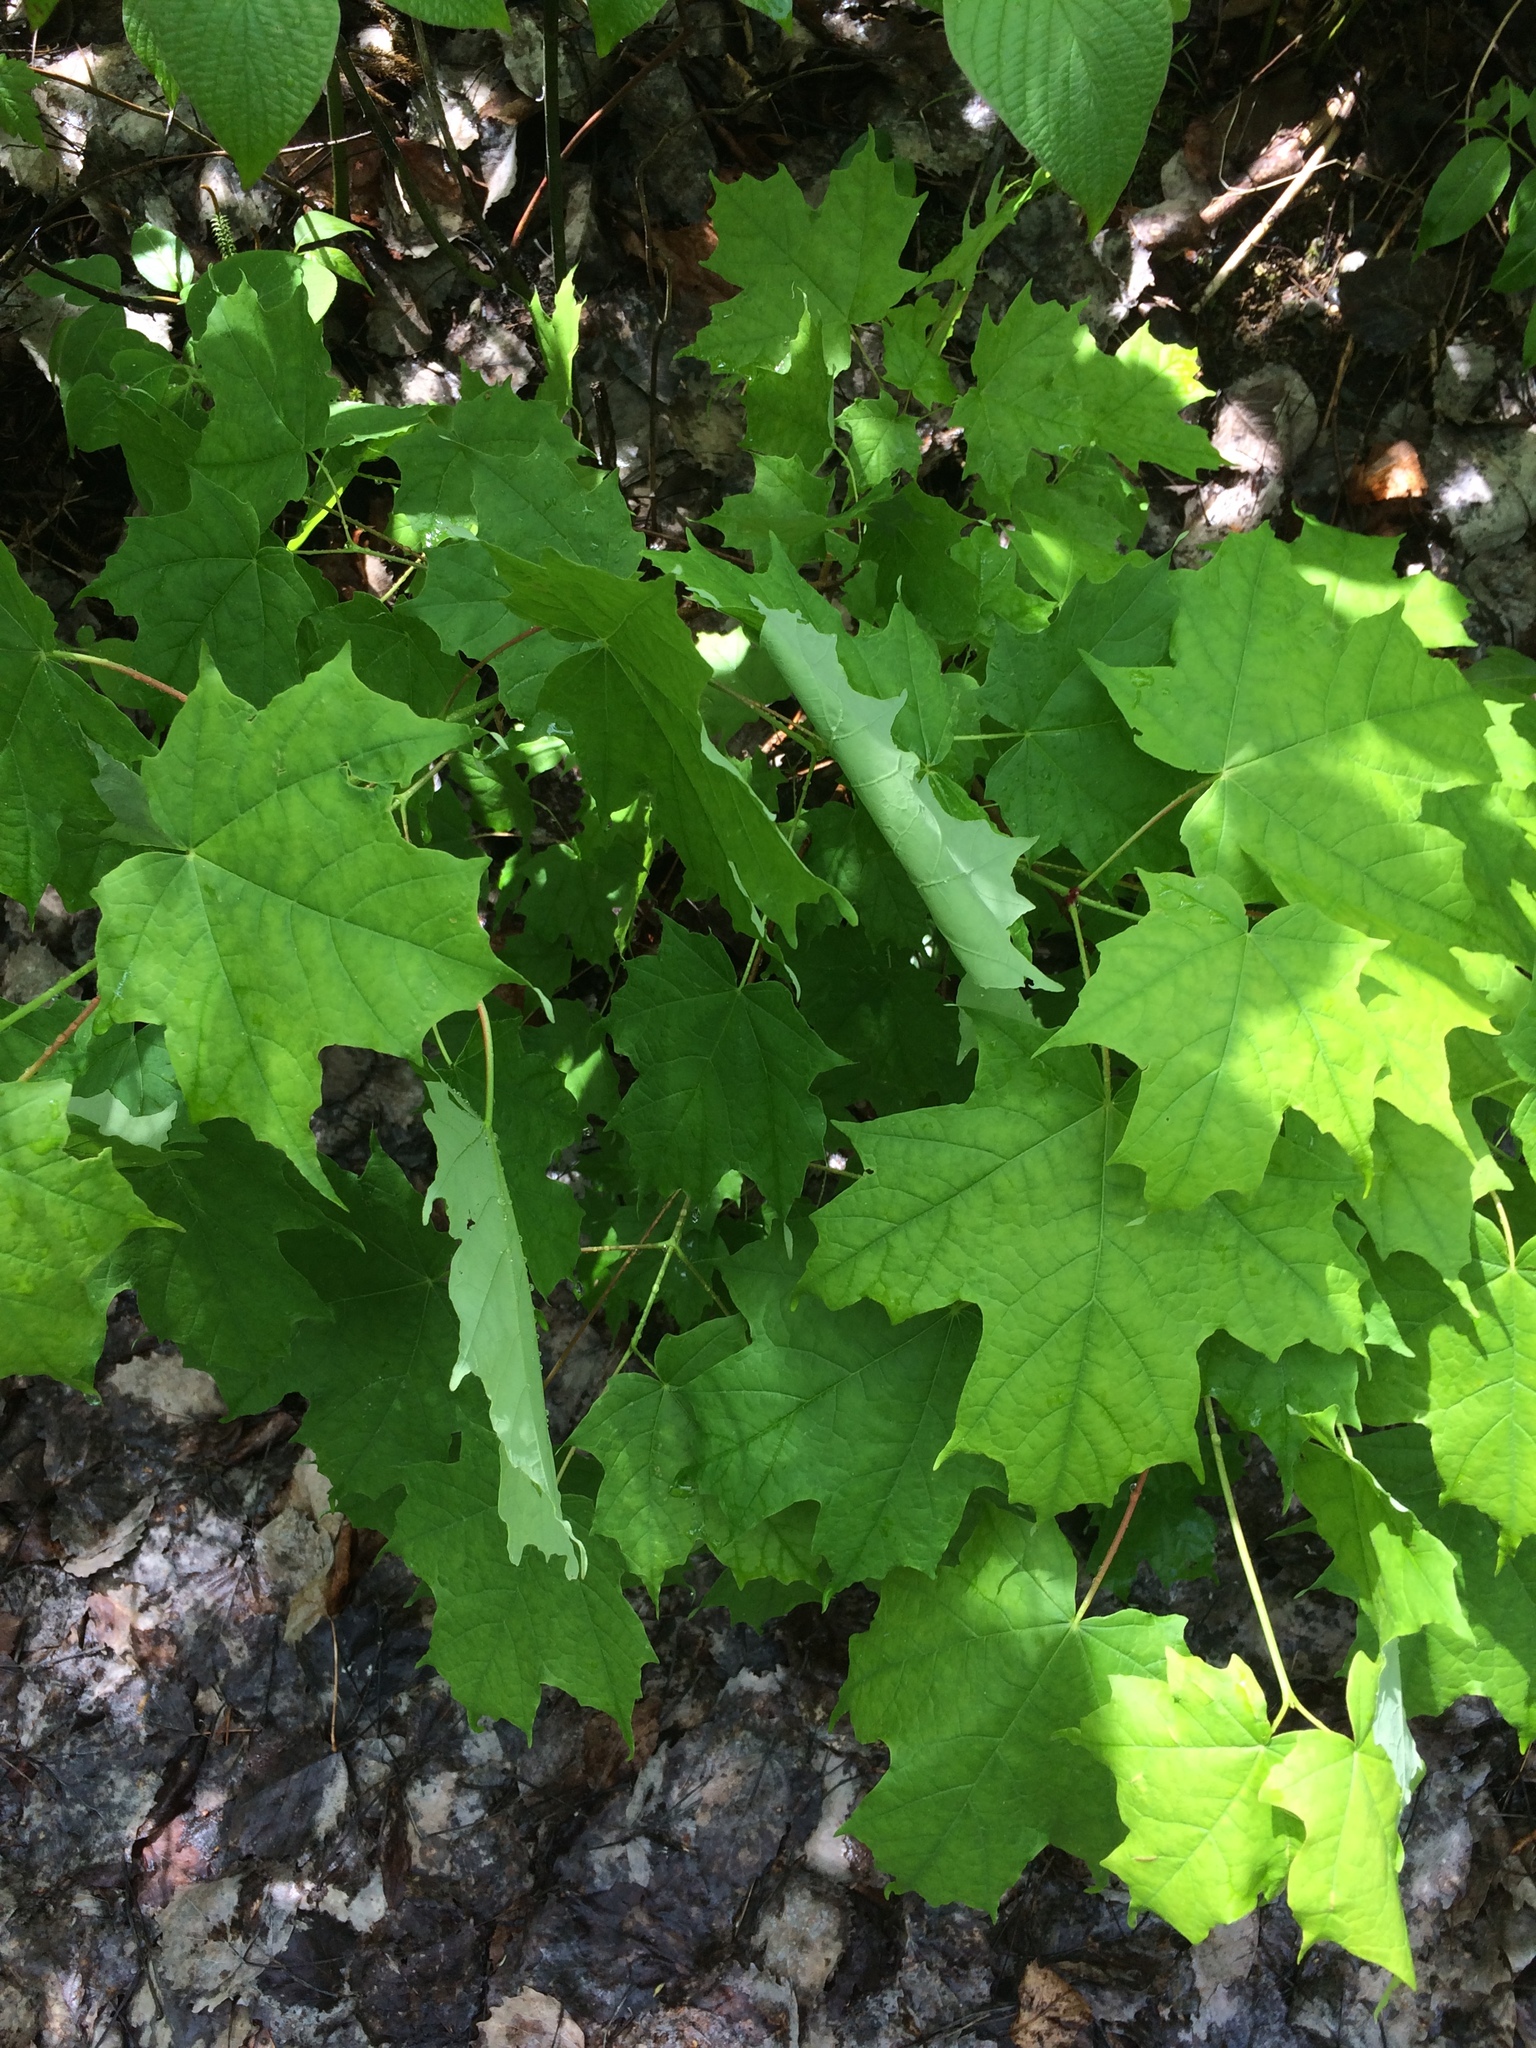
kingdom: Plantae
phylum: Tracheophyta
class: Magnoliopsida
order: Sapindales
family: Sapindaceae
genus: Acer
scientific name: Acer saccharum
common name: Sugar maple
